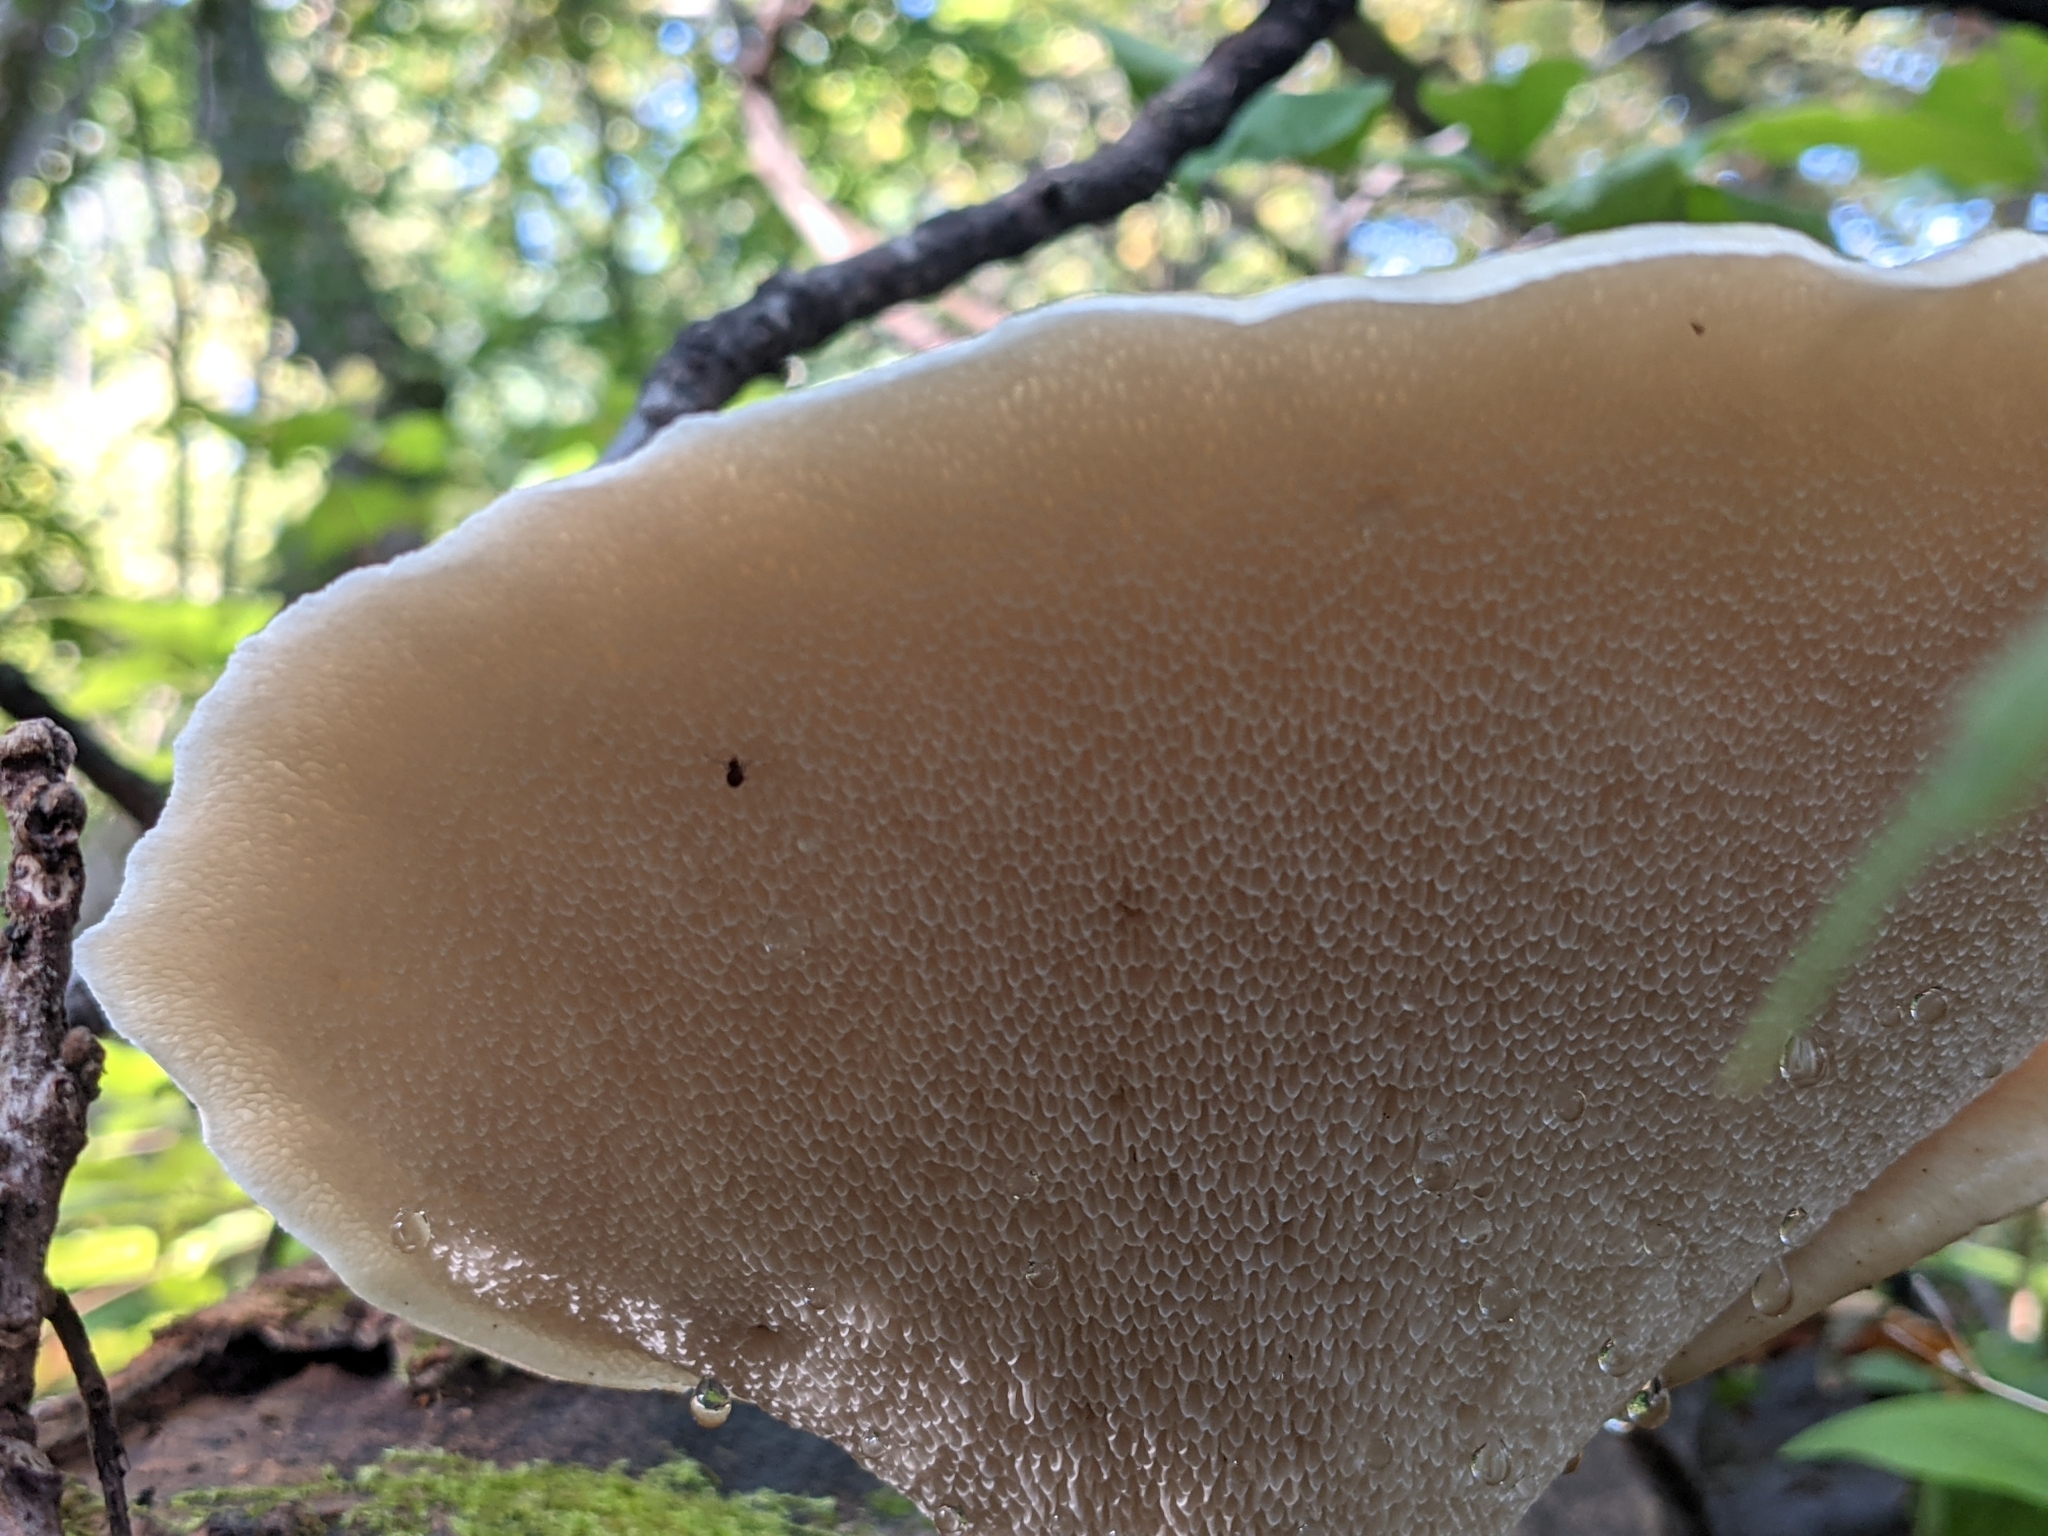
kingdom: Fungi
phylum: Basidiomycota
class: Agaricomycetes
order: Polyporales
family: Polyporaceae
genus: Cerioporus
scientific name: Cerioporus squamosus
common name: Dryad's saddle
